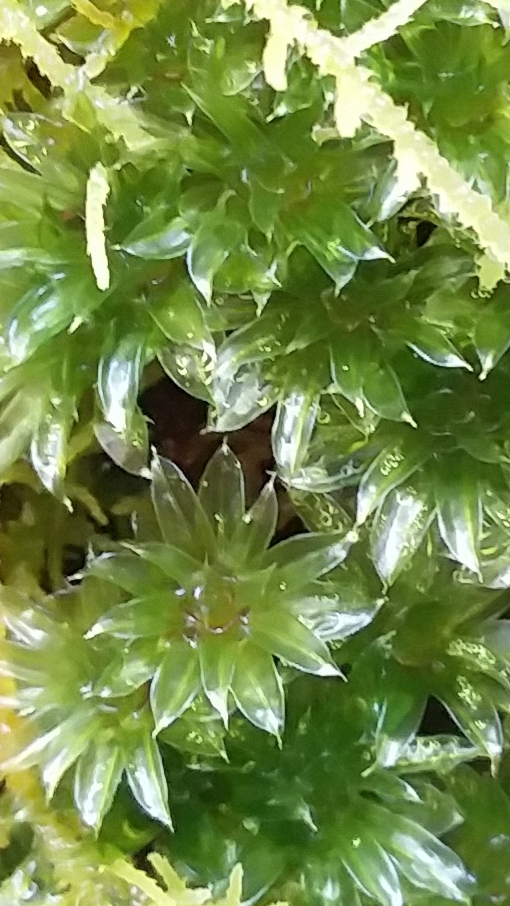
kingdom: Plantae
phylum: Bryophyta
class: Bryopsida
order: Bryales
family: Bryaceae
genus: Rosulabryum
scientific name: Rosulabryum billardierei
